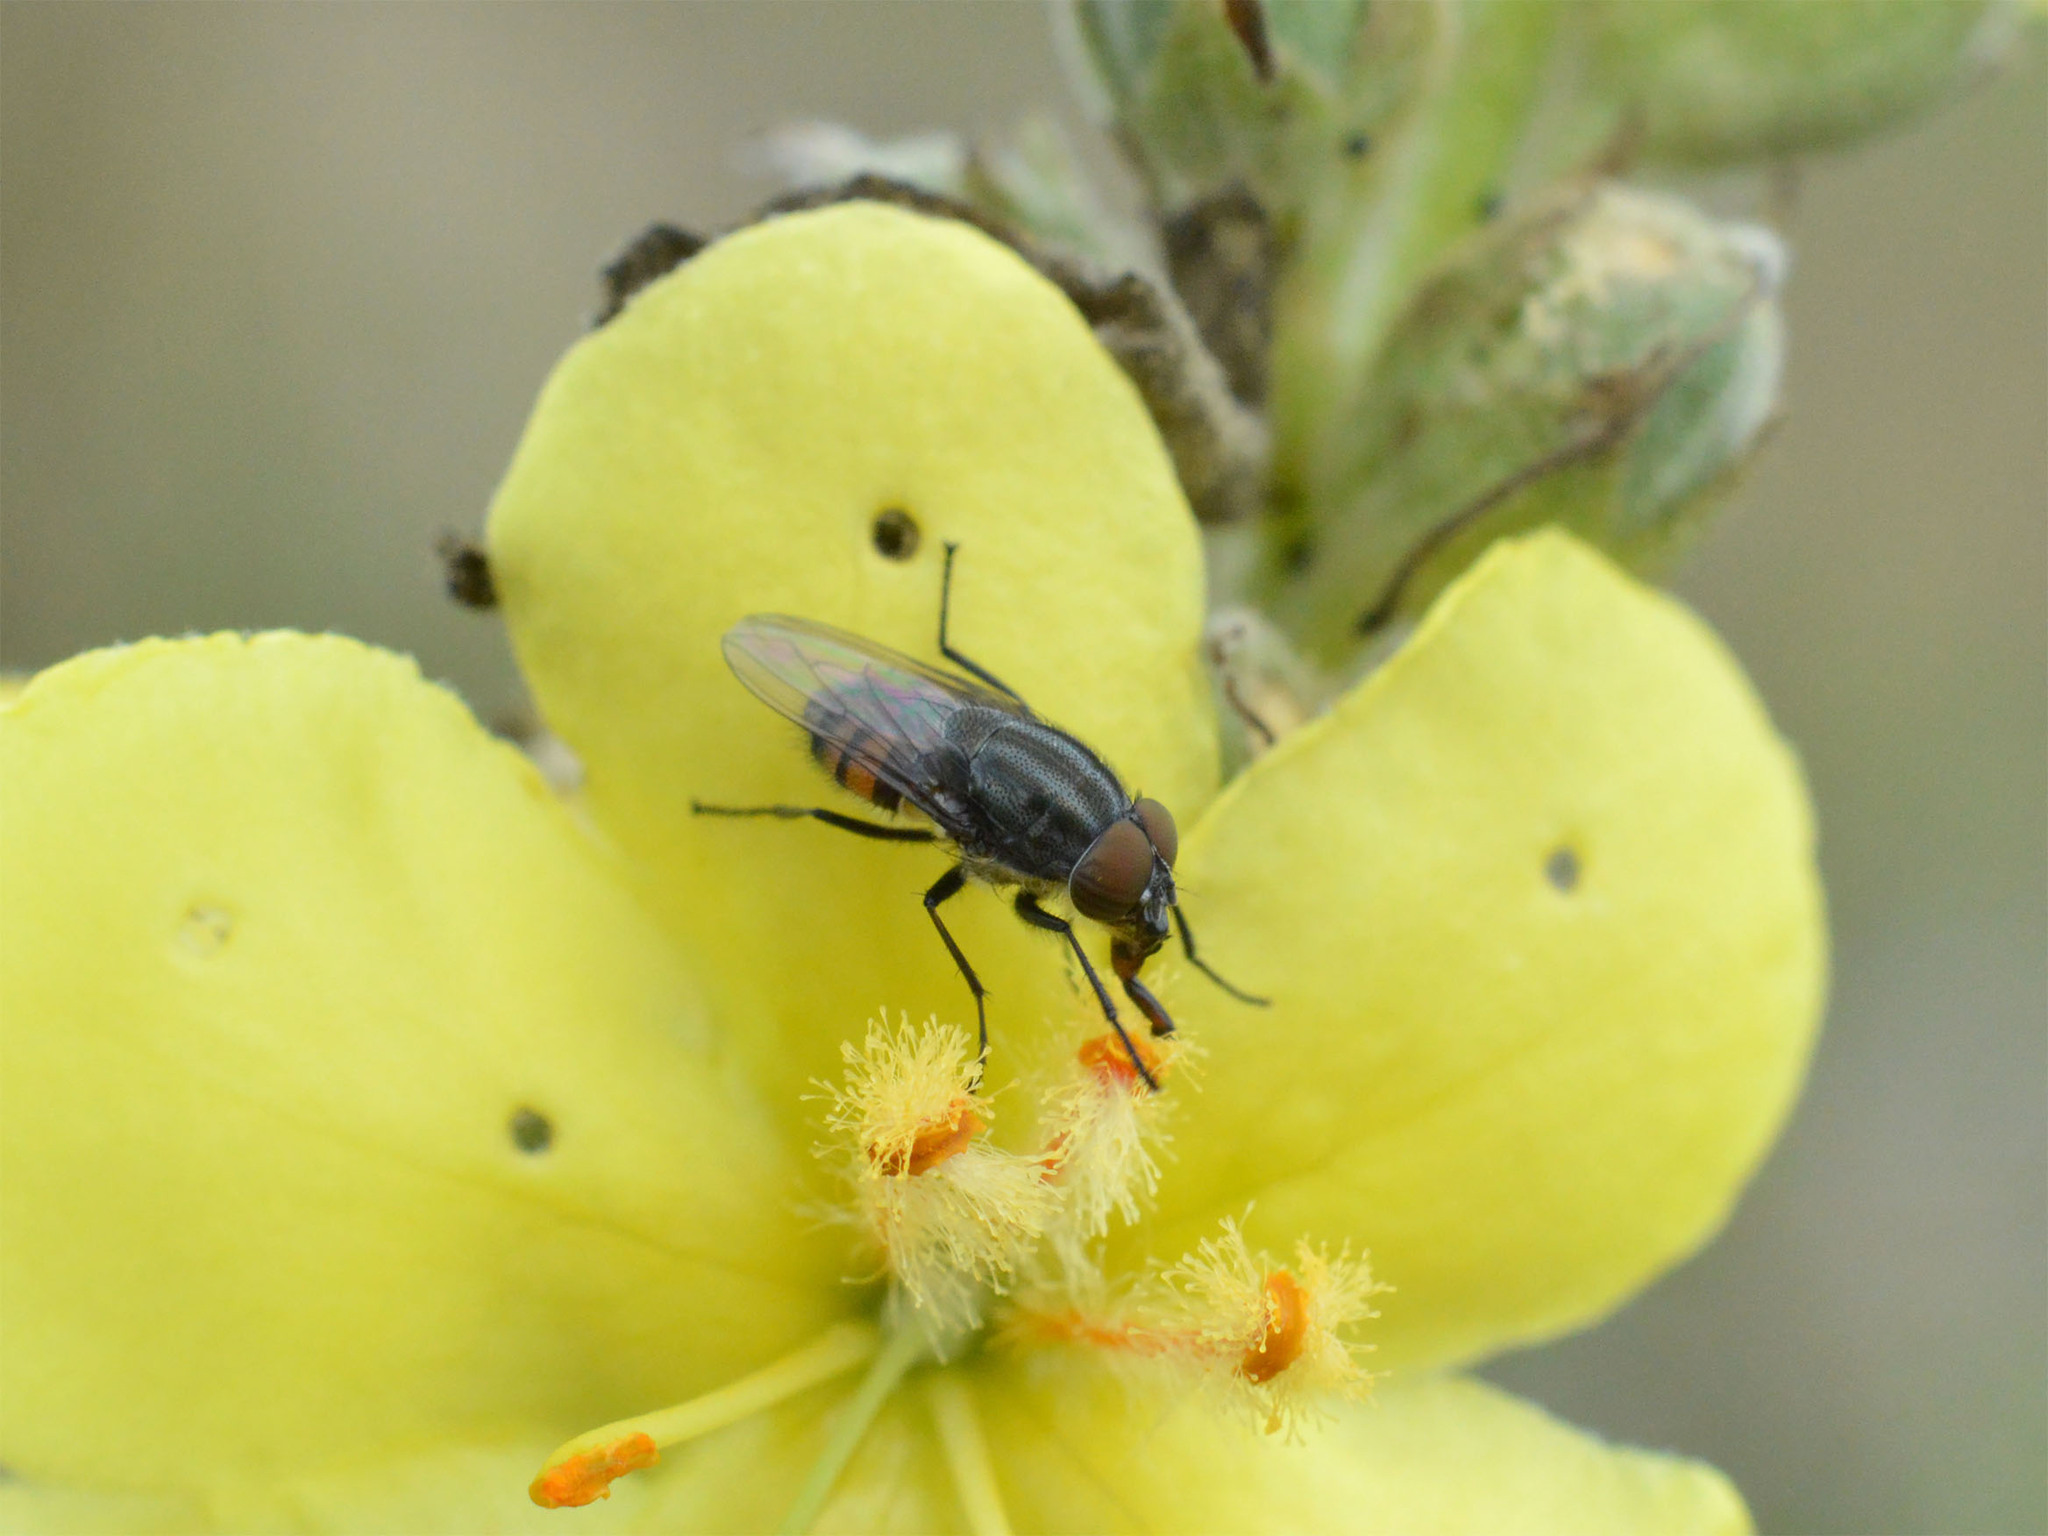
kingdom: Animalia
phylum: Arthropoda
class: Insecta
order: Diptera
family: Calliphoridae
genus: Stomorhina
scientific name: Stomorhina lunata
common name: Locust blowfly
